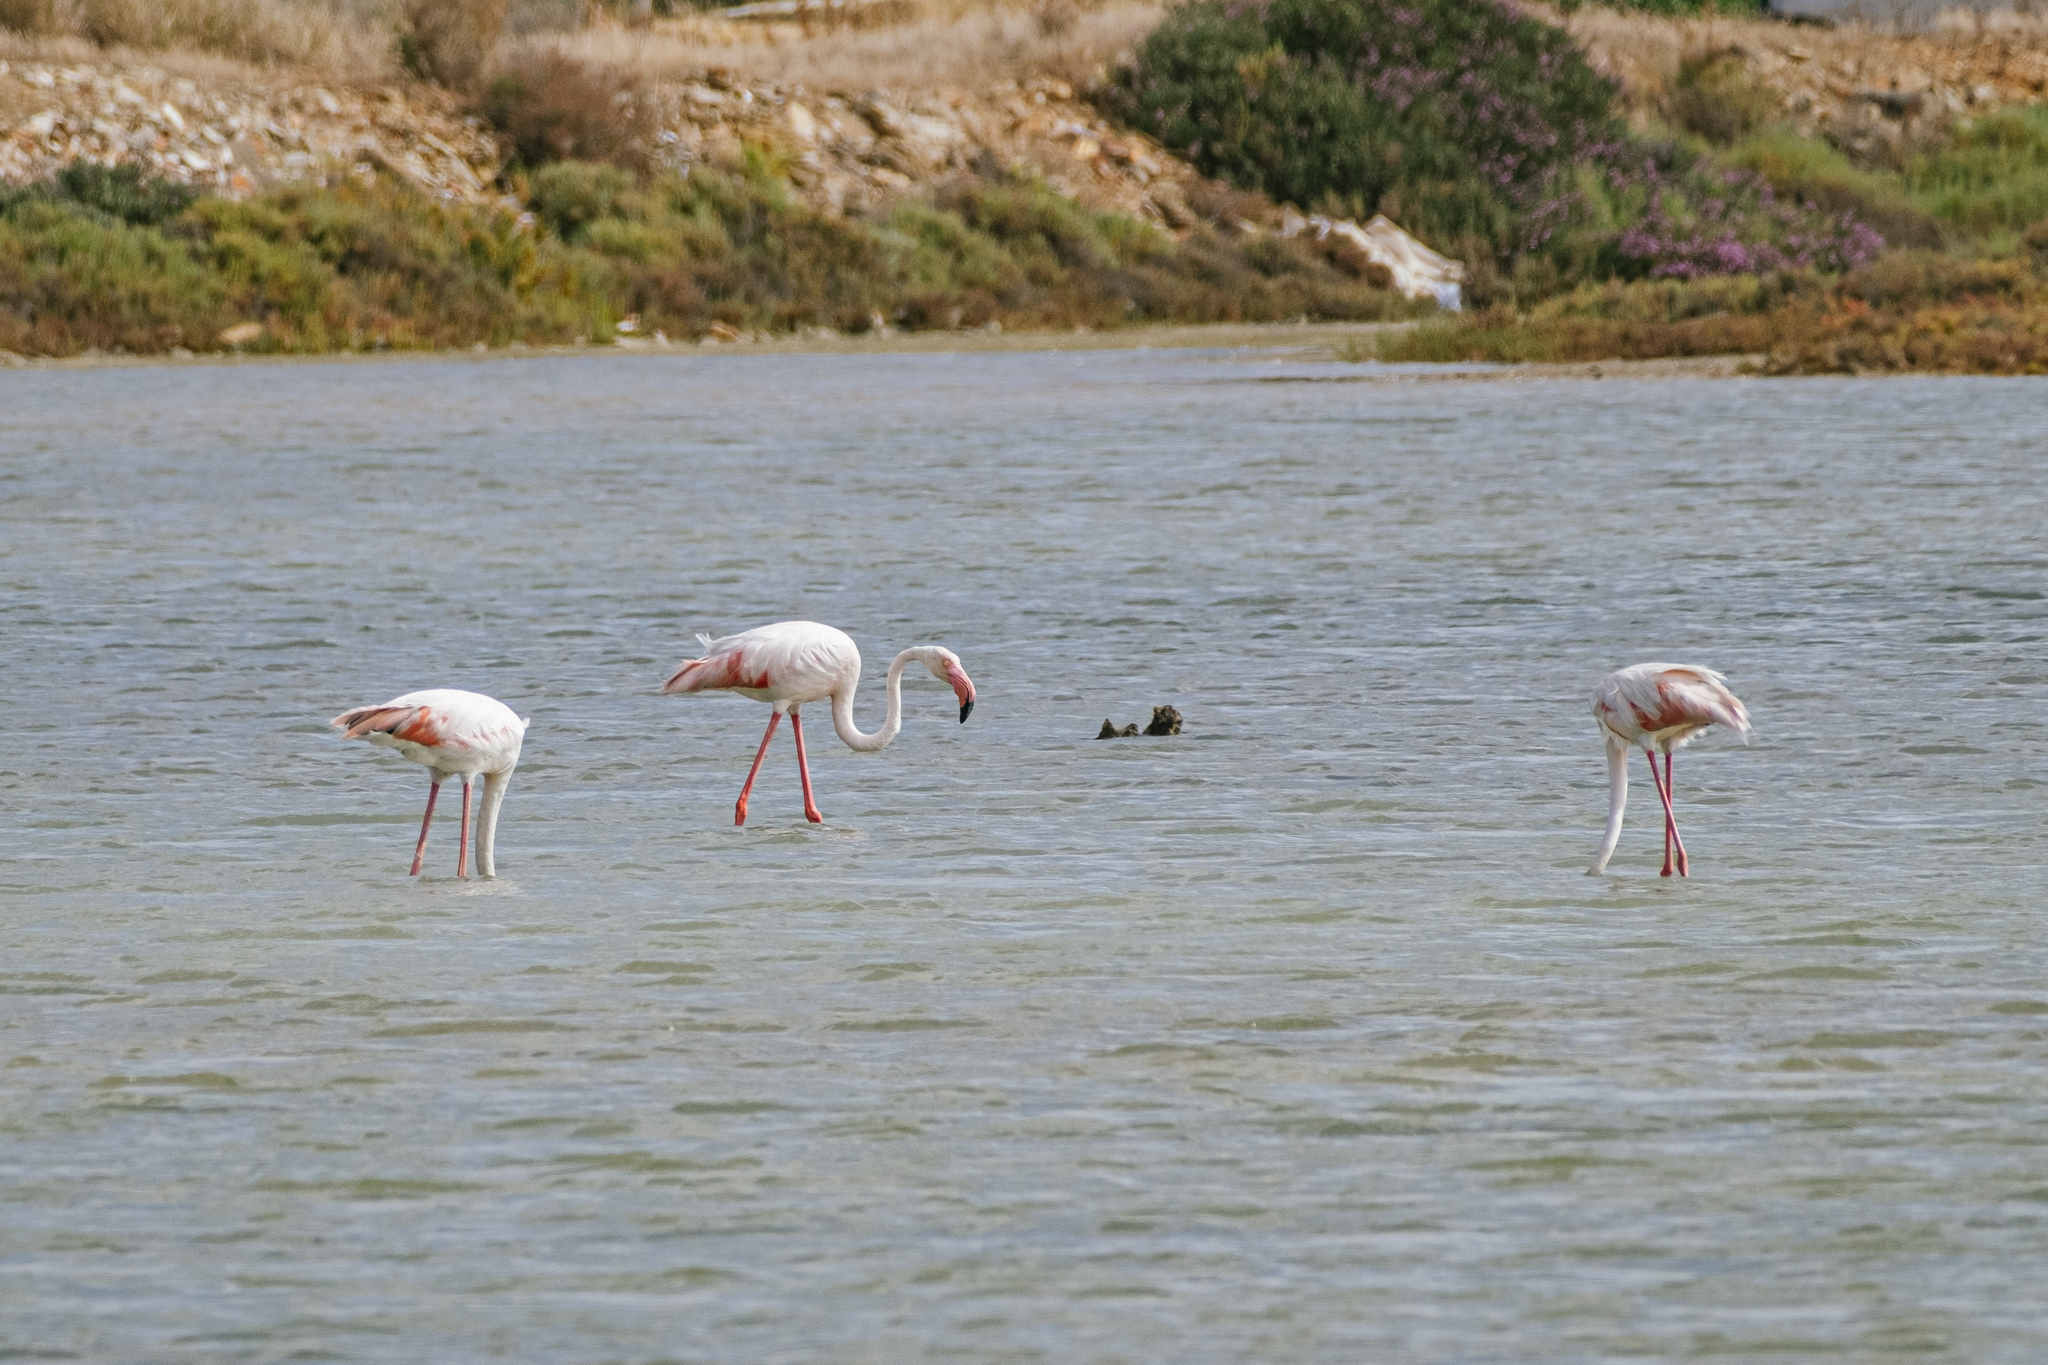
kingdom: Animalia
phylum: Chordata
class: Aves
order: Phoenicopteriformes
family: Phoenicopteridae
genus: Phoenicopterus
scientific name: Phoenicopterus roseus
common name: Greater flamingo
